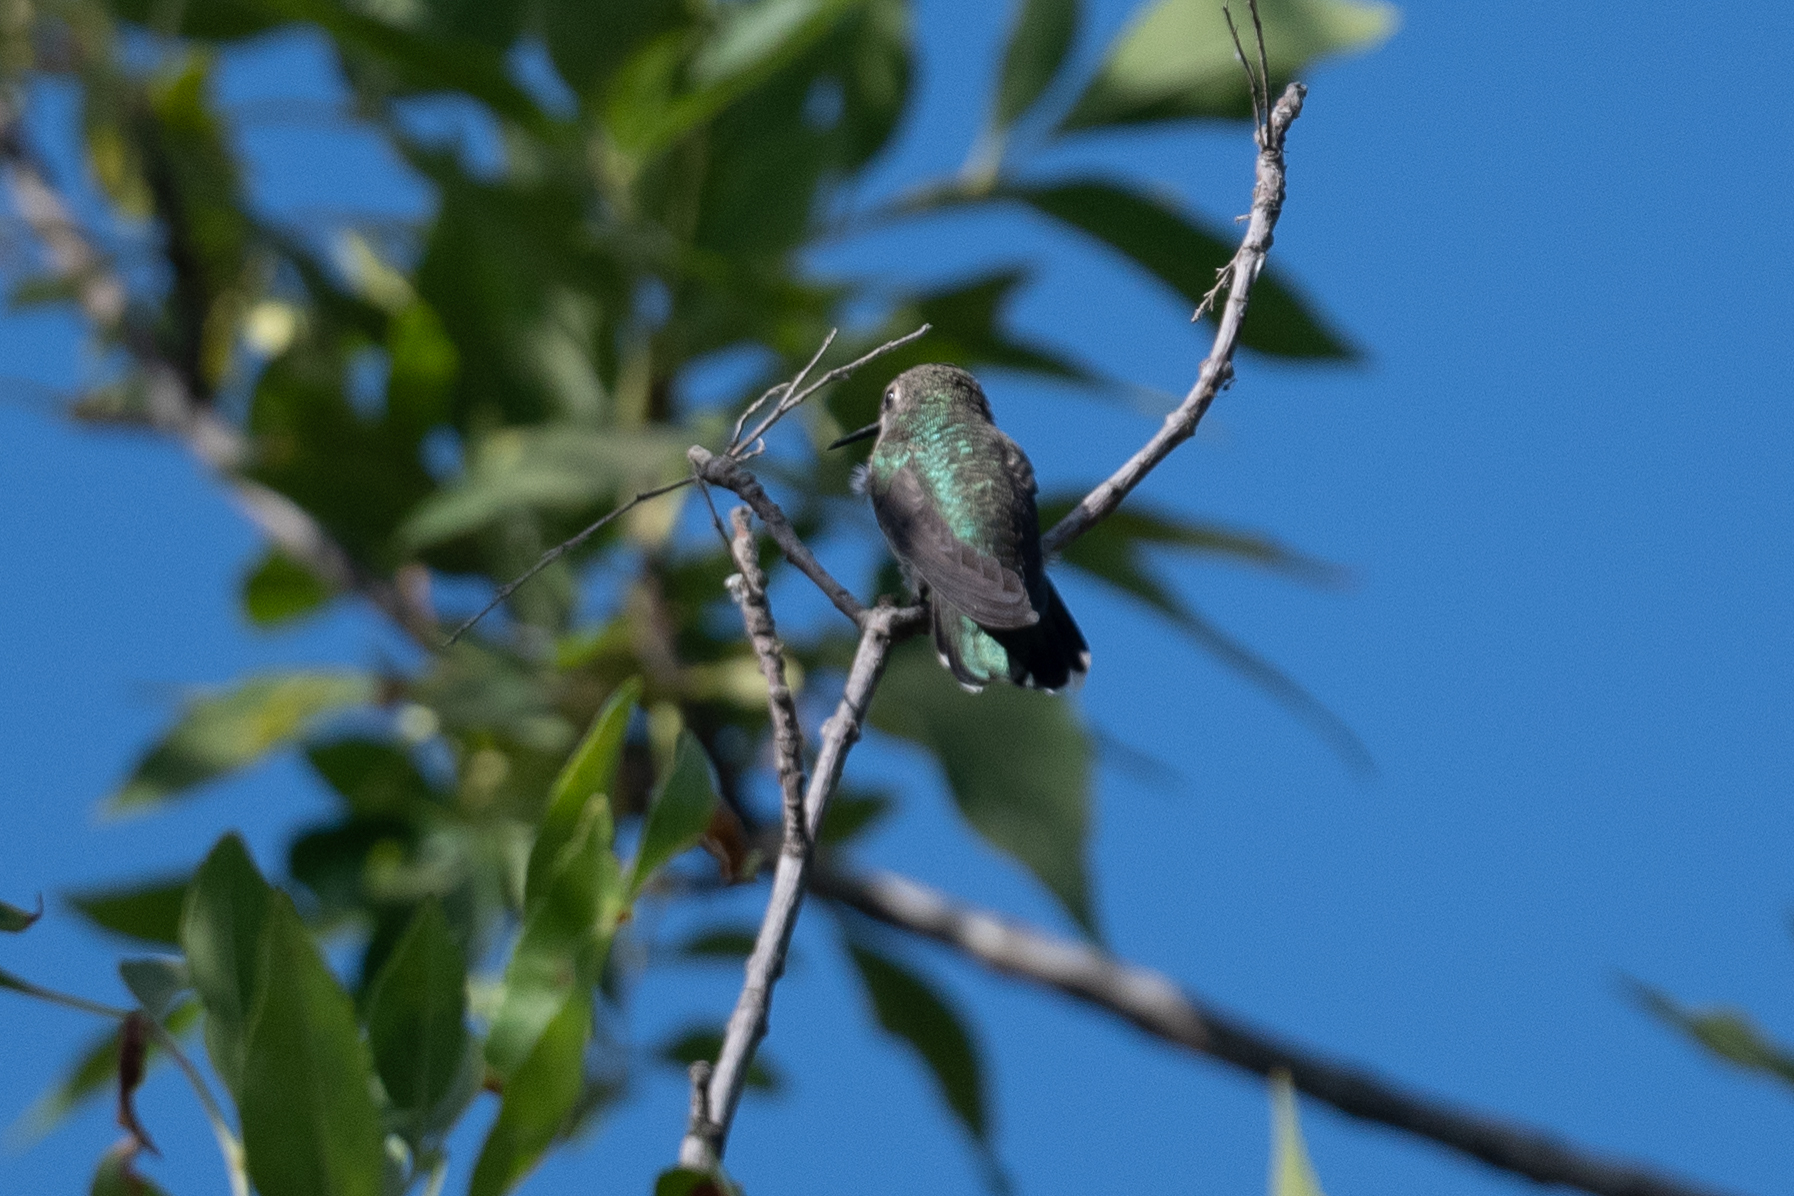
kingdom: Animalia
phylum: Chordata
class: Aves
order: Apodiformes
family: Trochilidae
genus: Calypte
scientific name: Calypte anna
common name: Anna's hummingbird
